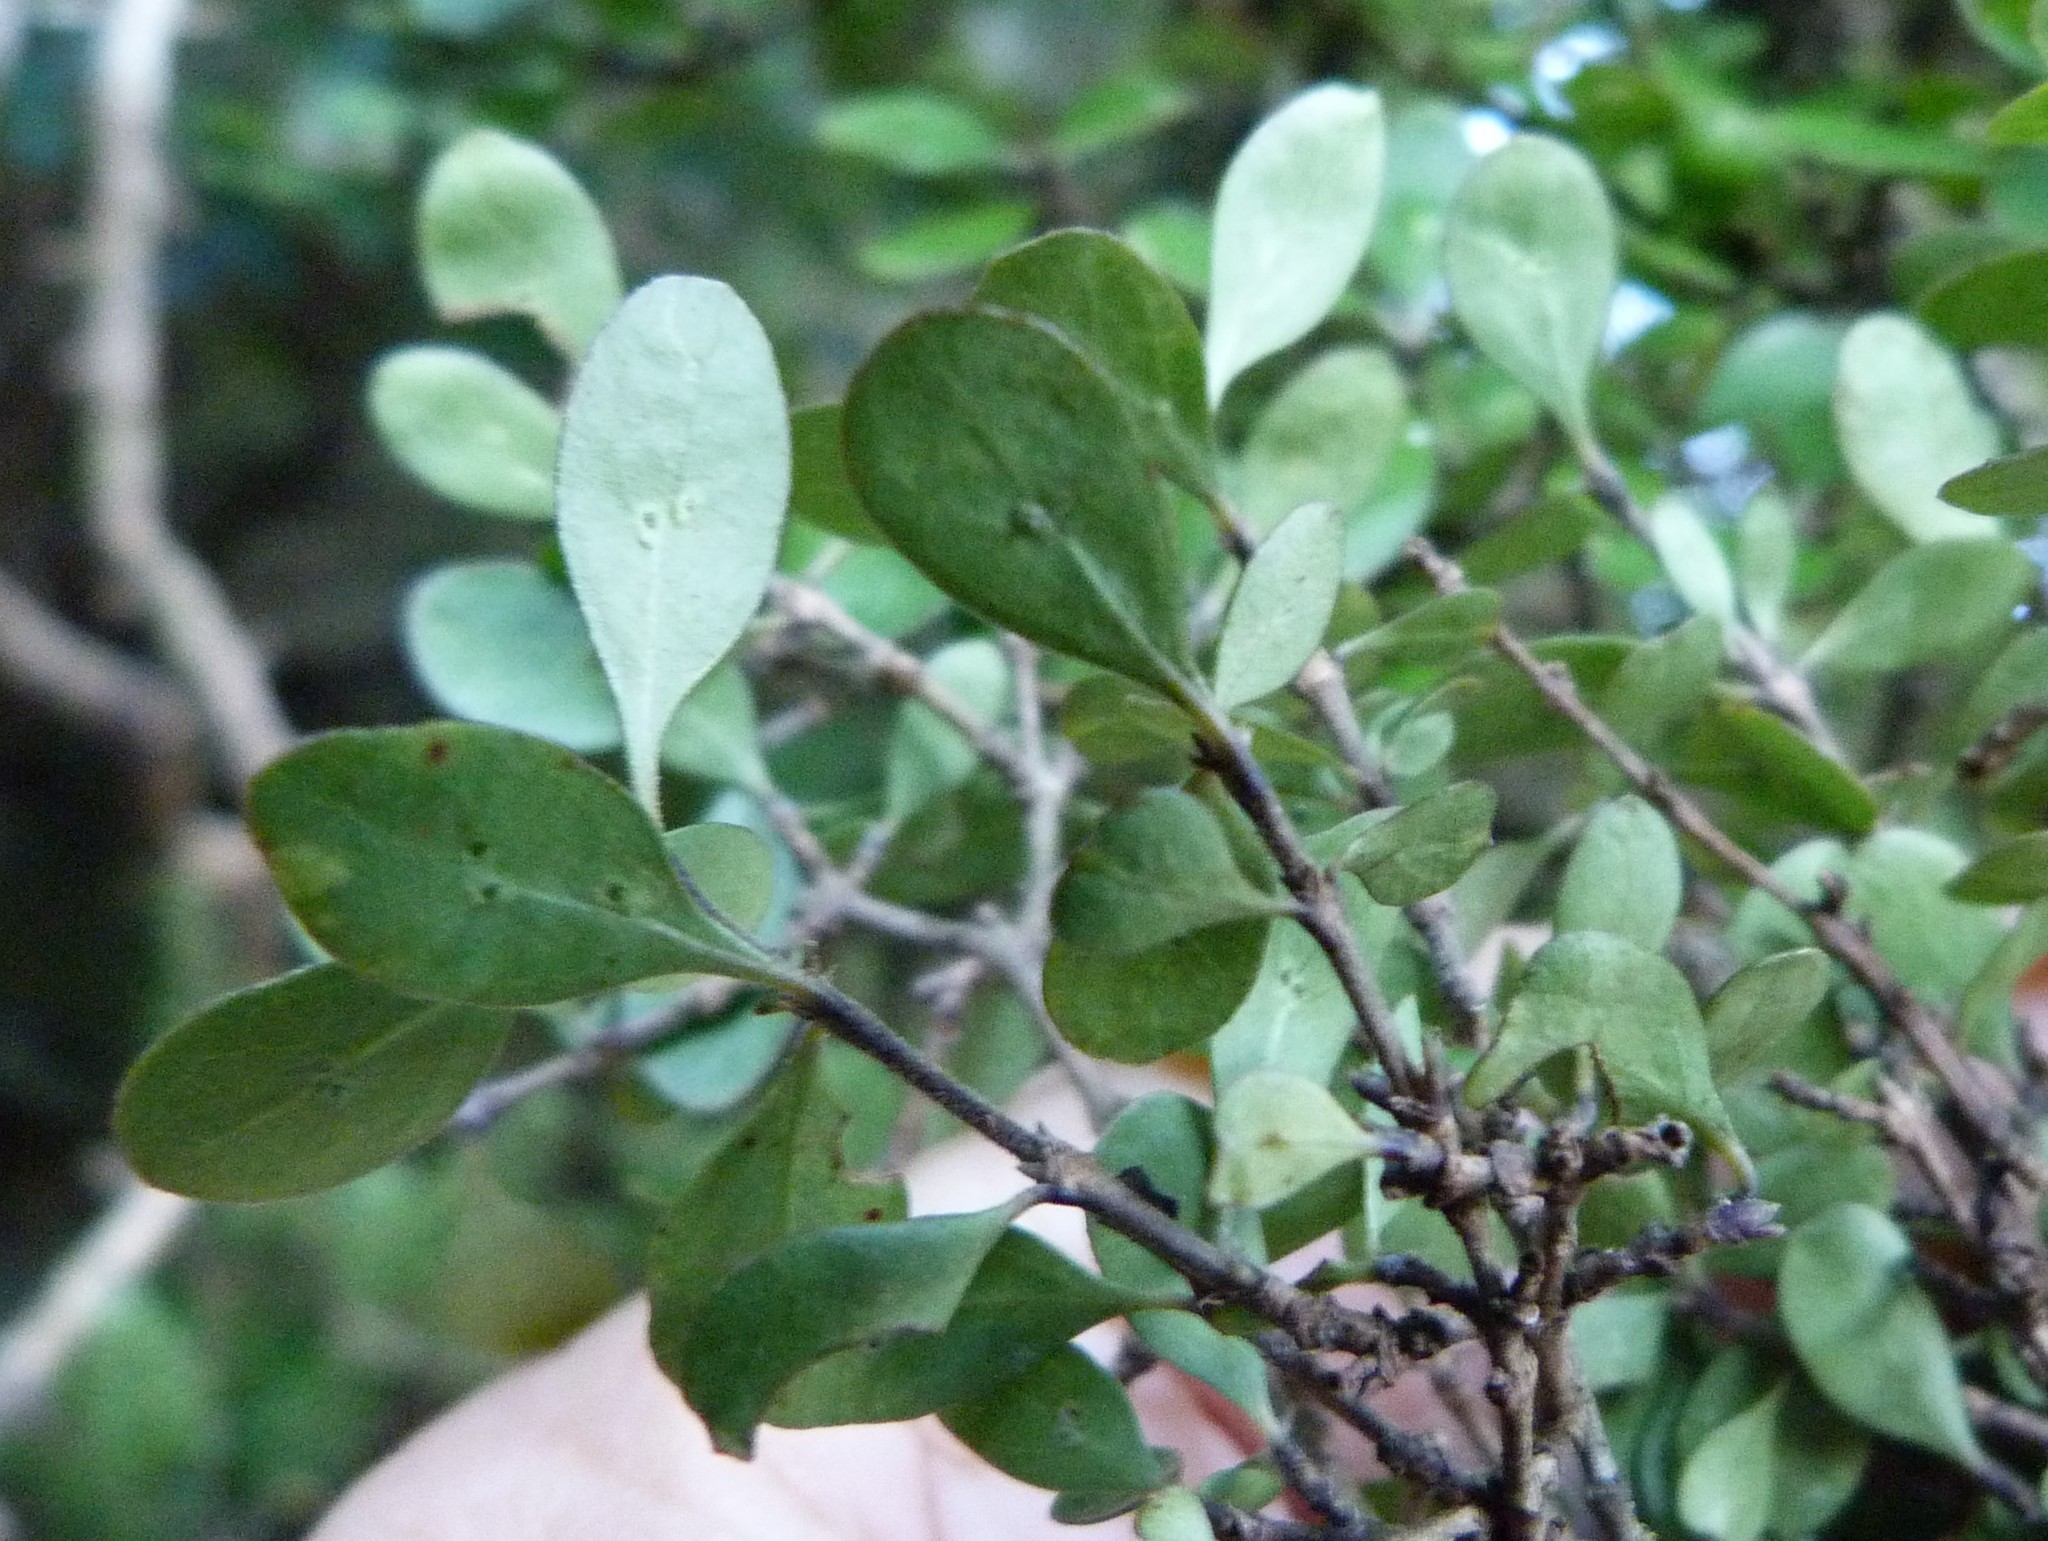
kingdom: Plantae
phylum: Tracheophyta
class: Magnoliopsida
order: Gentianales
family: Rubiaceae
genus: Coprosma
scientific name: Coprosma rigida
